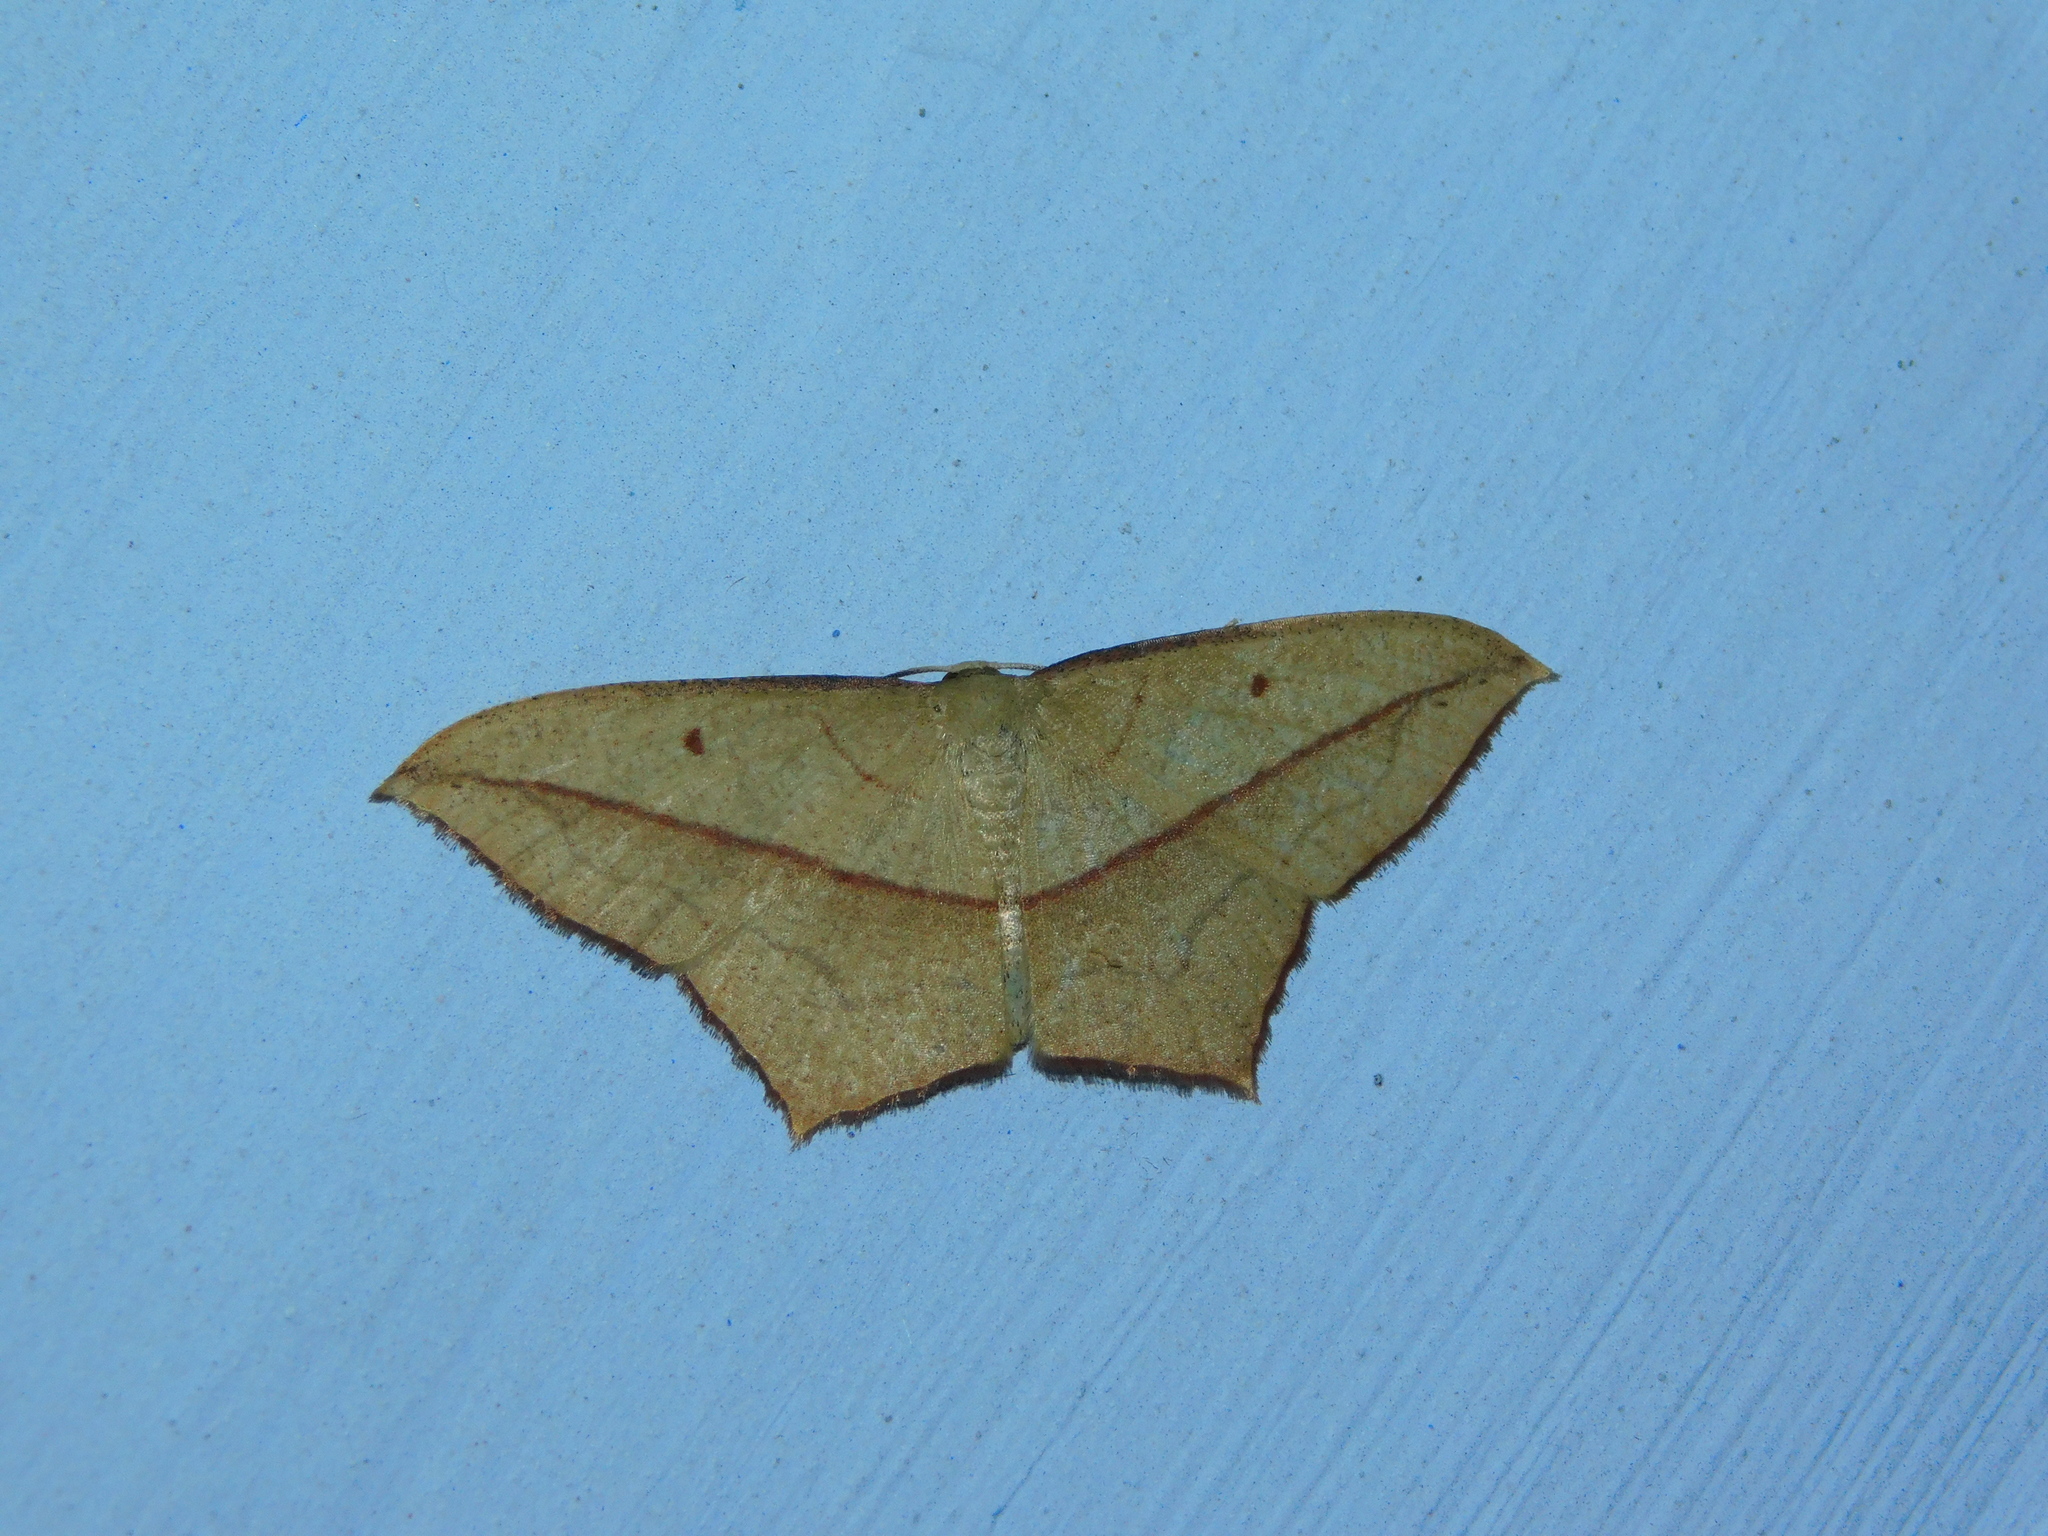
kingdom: Animalia
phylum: Arthropoda
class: Insecta
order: Lepidoptera
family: Geometridae
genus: Timandra
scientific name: Timandra nelsoni
